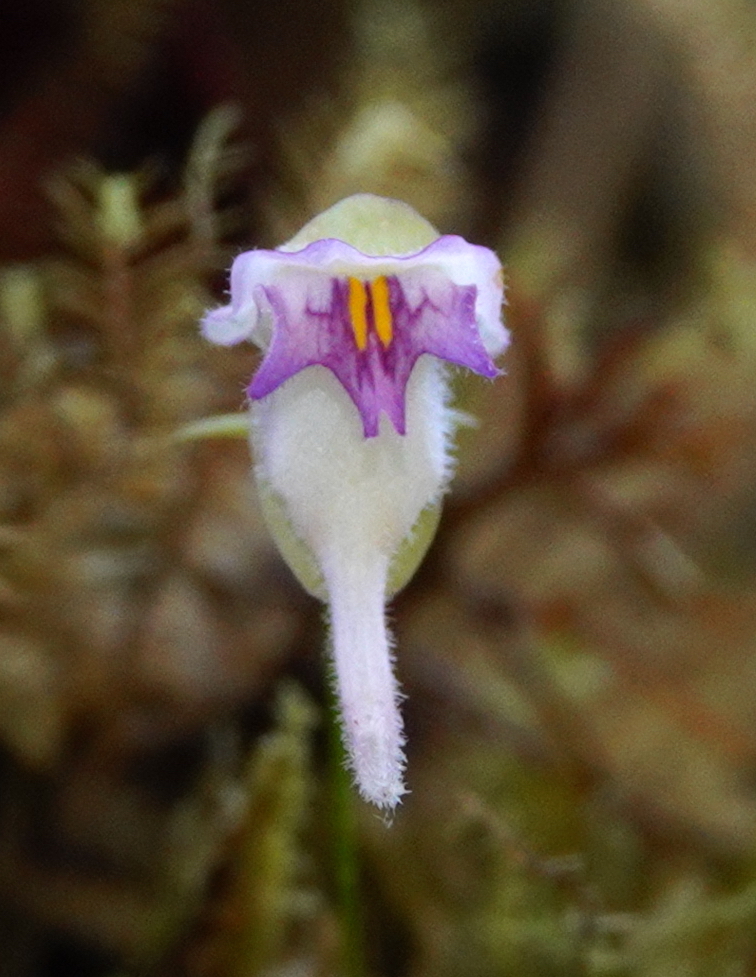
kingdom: Plantae
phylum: Tracheophyta
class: Magnoliopsida
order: Lamiales
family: Lentibulariaceae
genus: Utricularia
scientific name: Utricularia jamesoniana
